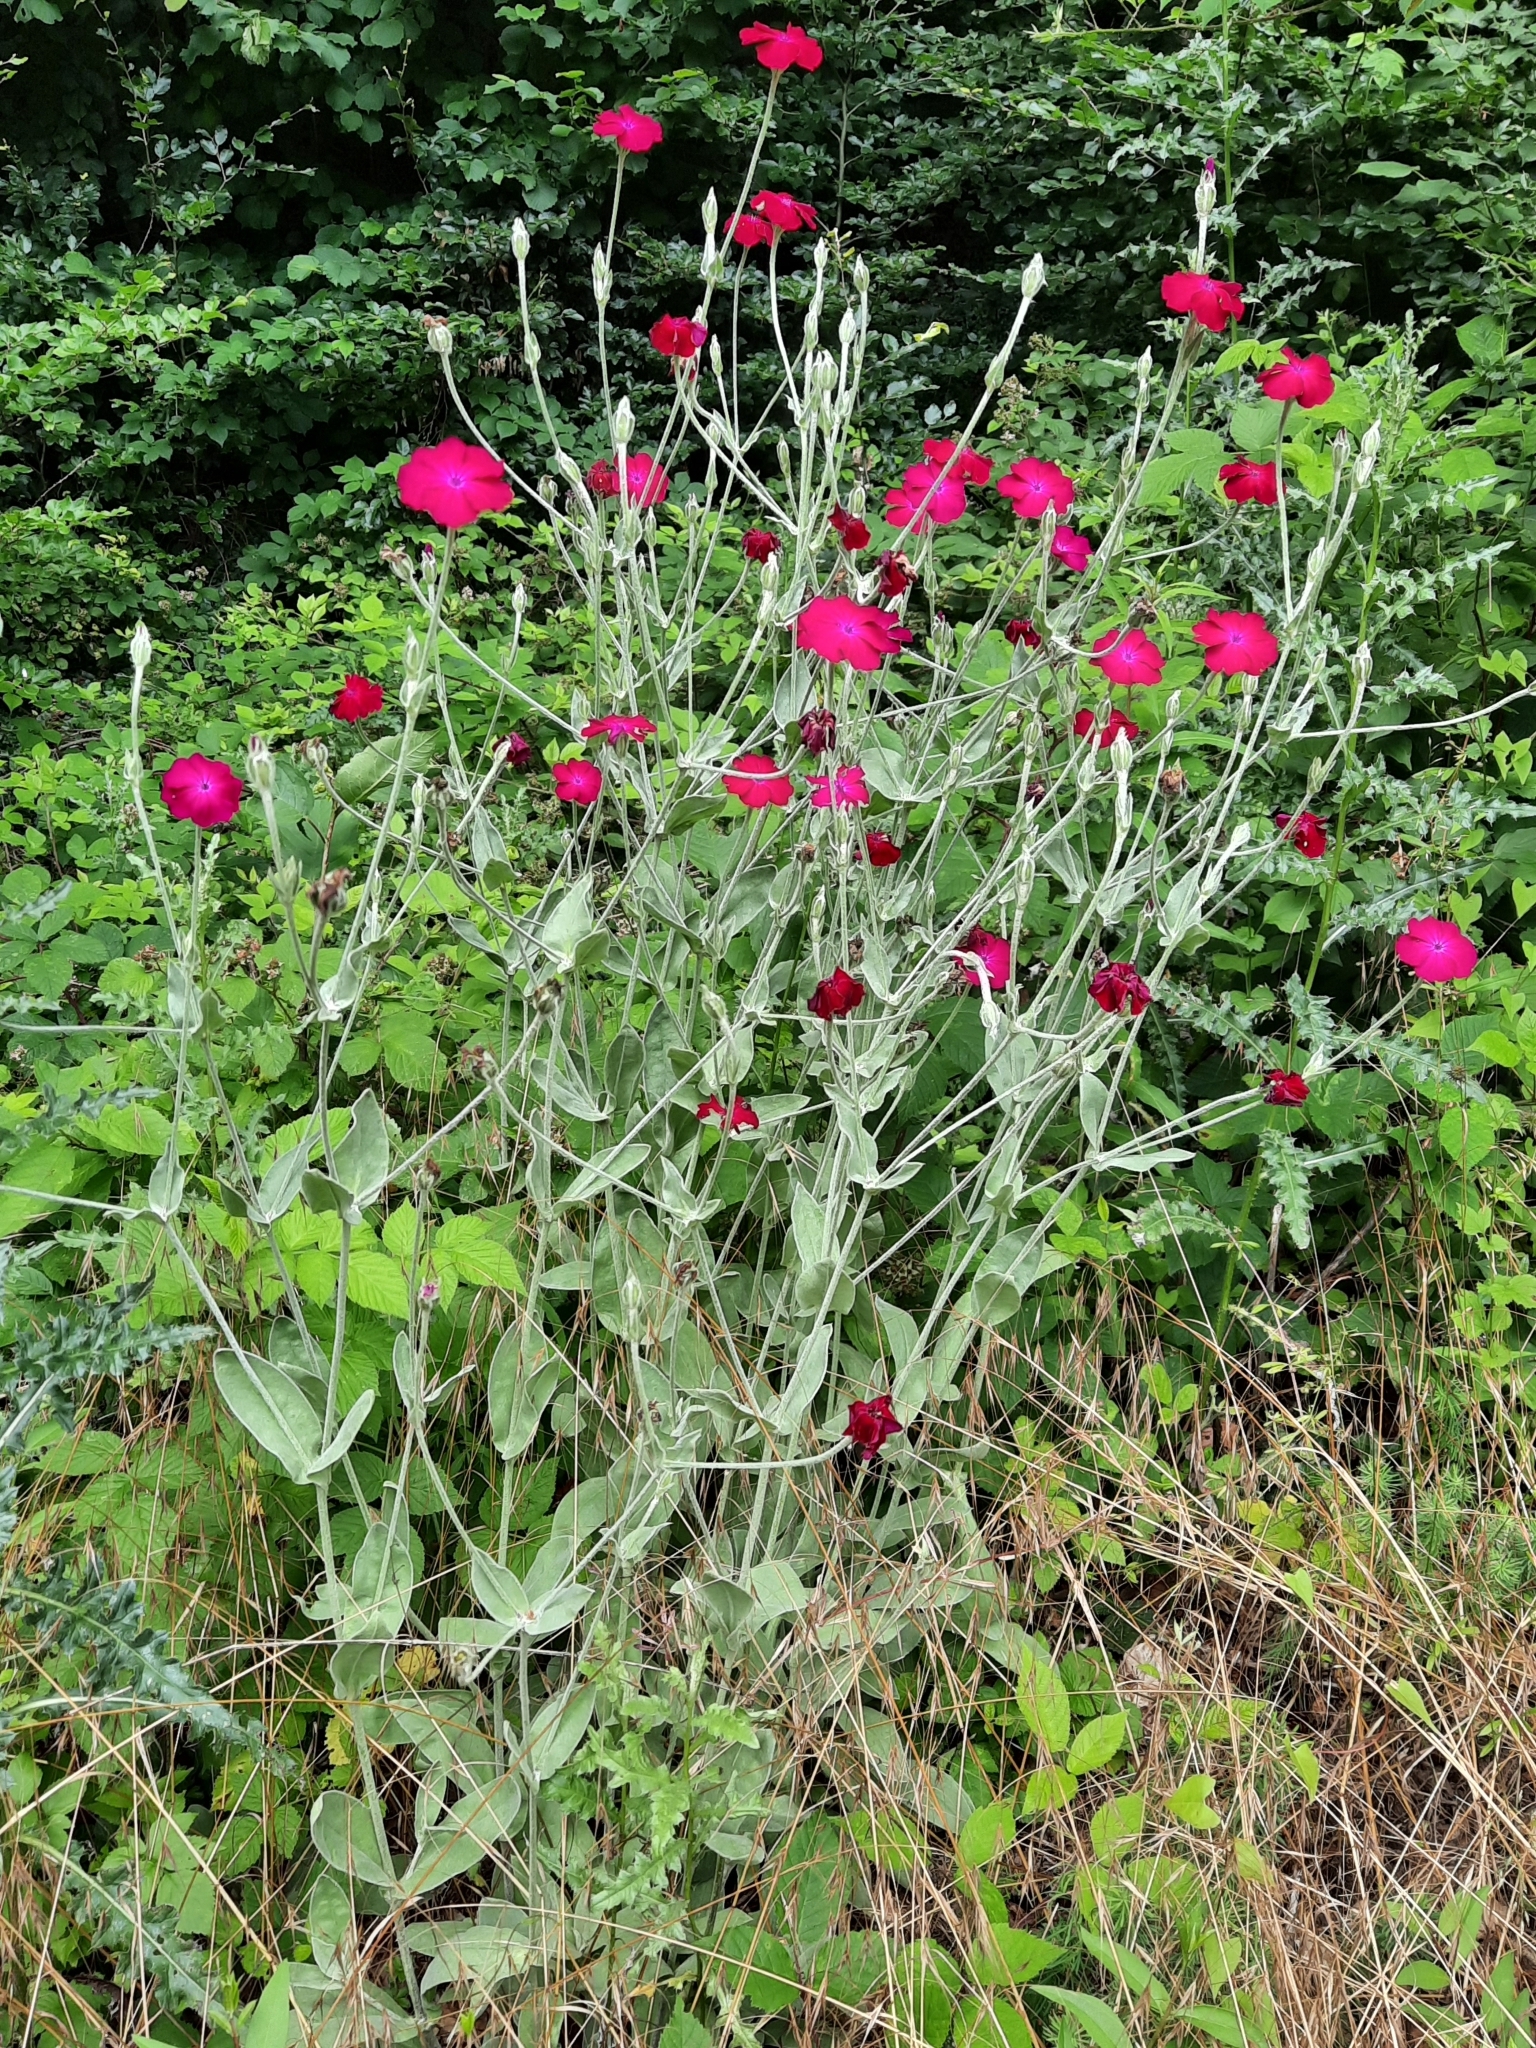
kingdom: Plantae
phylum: Tracheophyta
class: Magnoliopsida
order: Caryophyllales
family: Caryophyllaceae
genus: Silene
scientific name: Silene coronaria
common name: Rose campion
